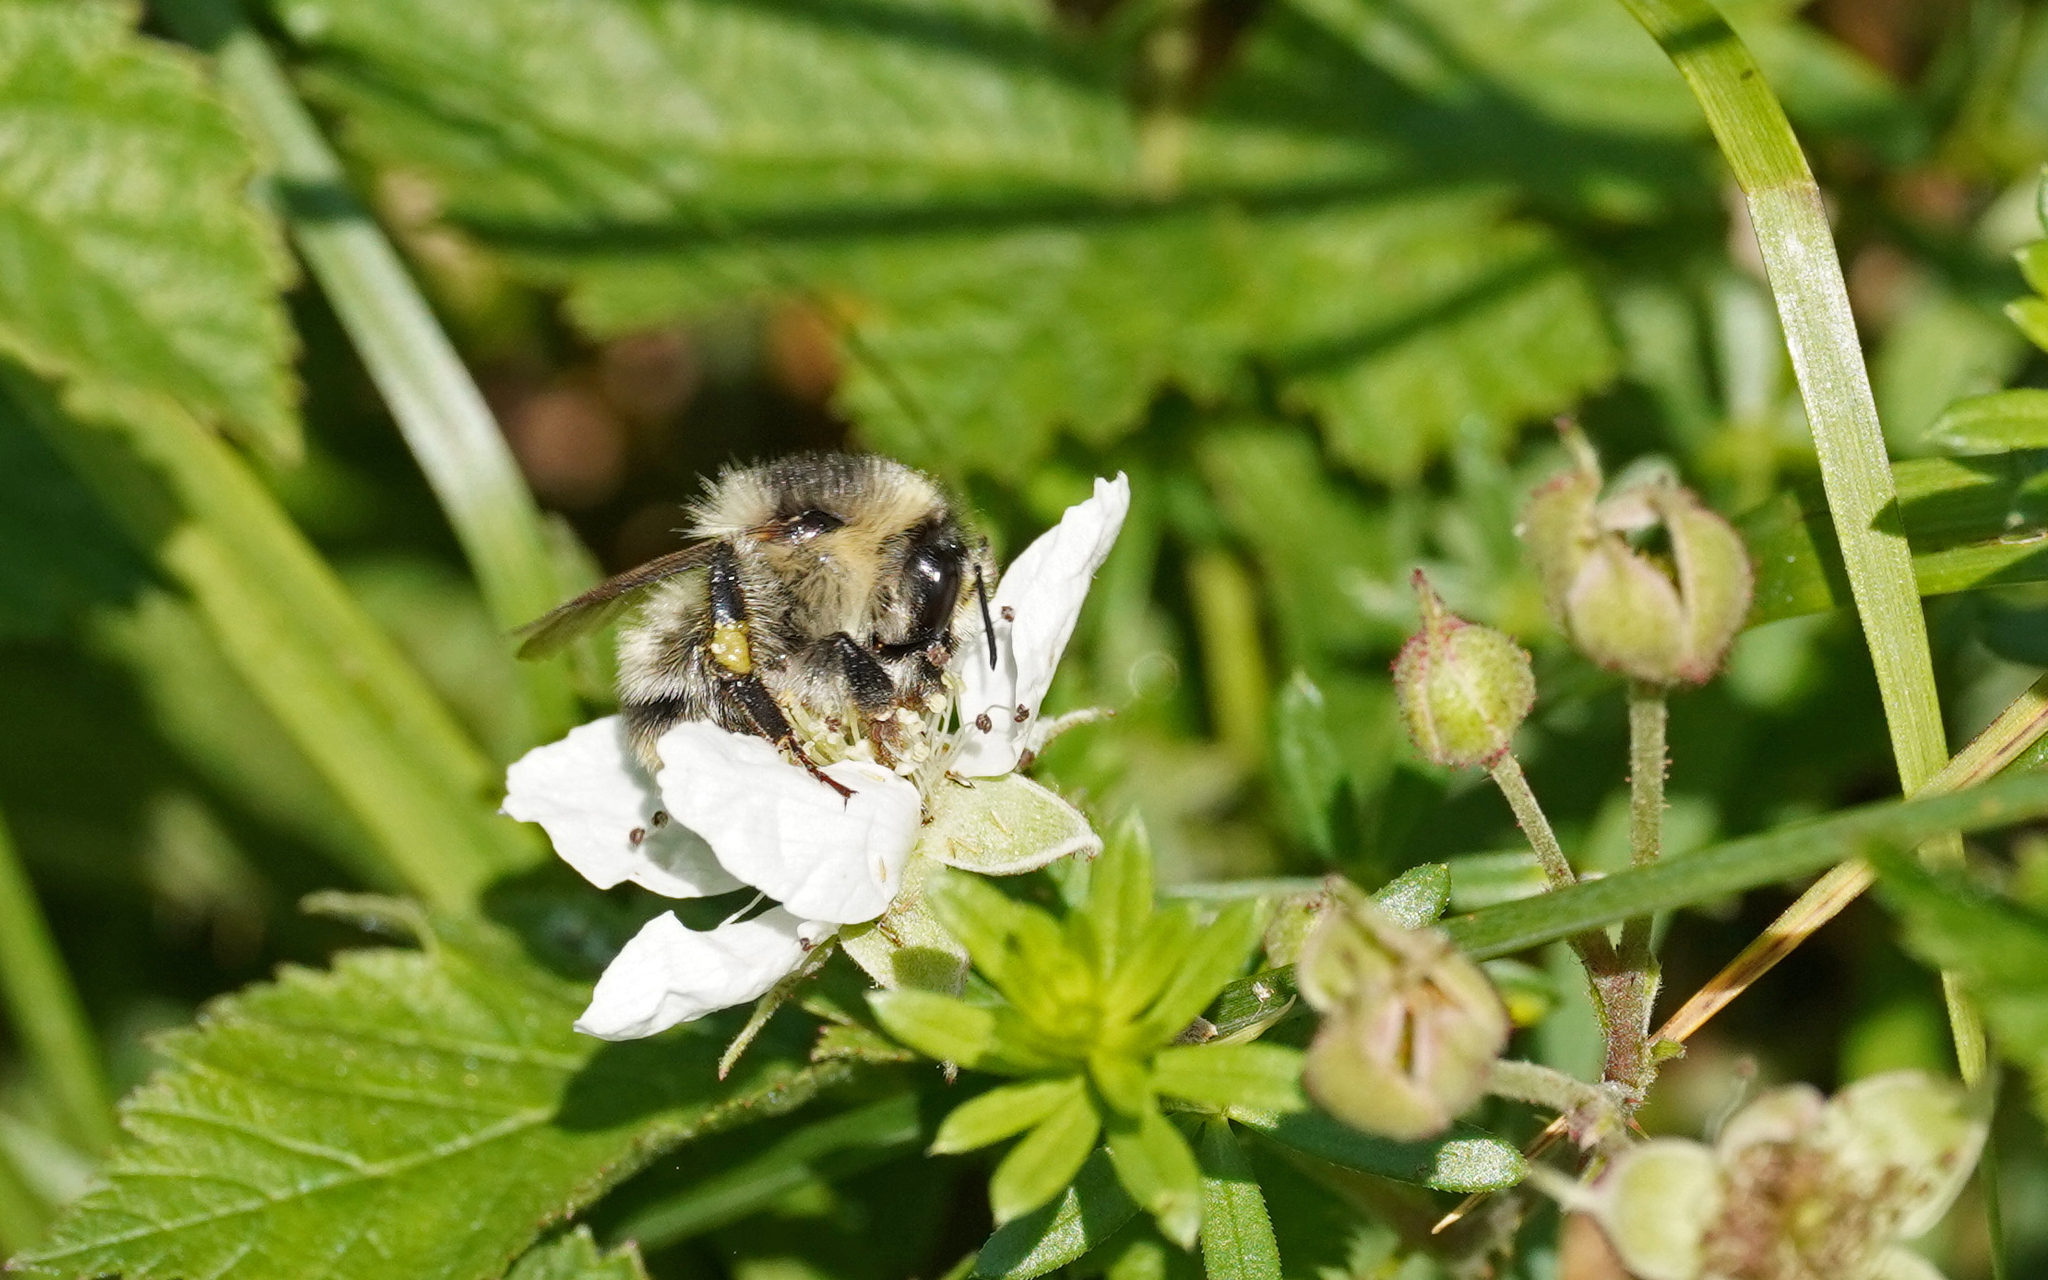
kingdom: Animalia
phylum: Arthropoda
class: Insecta
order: Hymenoptera
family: Apidae
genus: Bombus
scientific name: Bombus sylvarum
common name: Shrill carder bee
